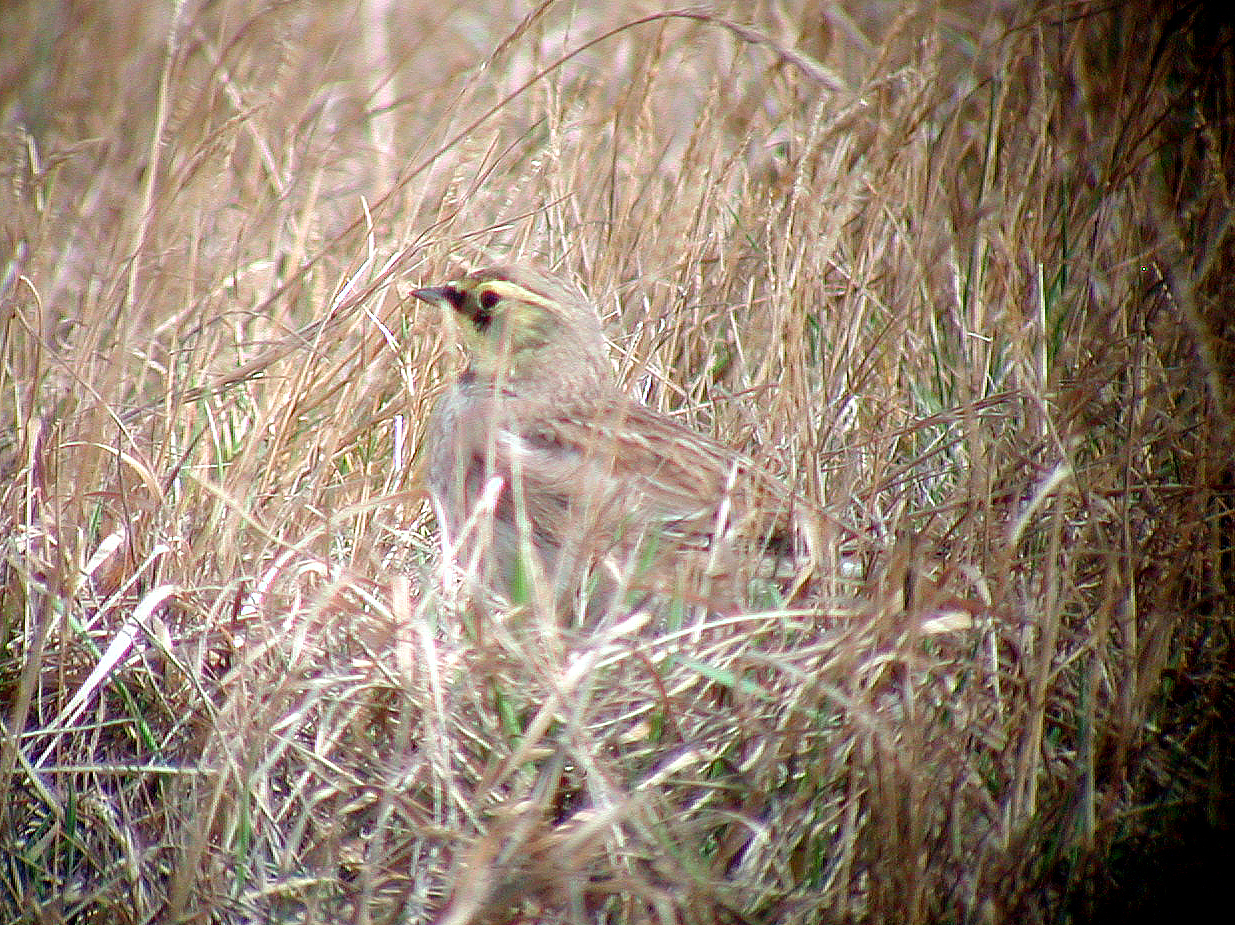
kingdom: Animalia
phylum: Chordata
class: Aves
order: Passeriformes
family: Alaudidae
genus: Eremophila
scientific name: Eremophila alpestris
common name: Horned lark
